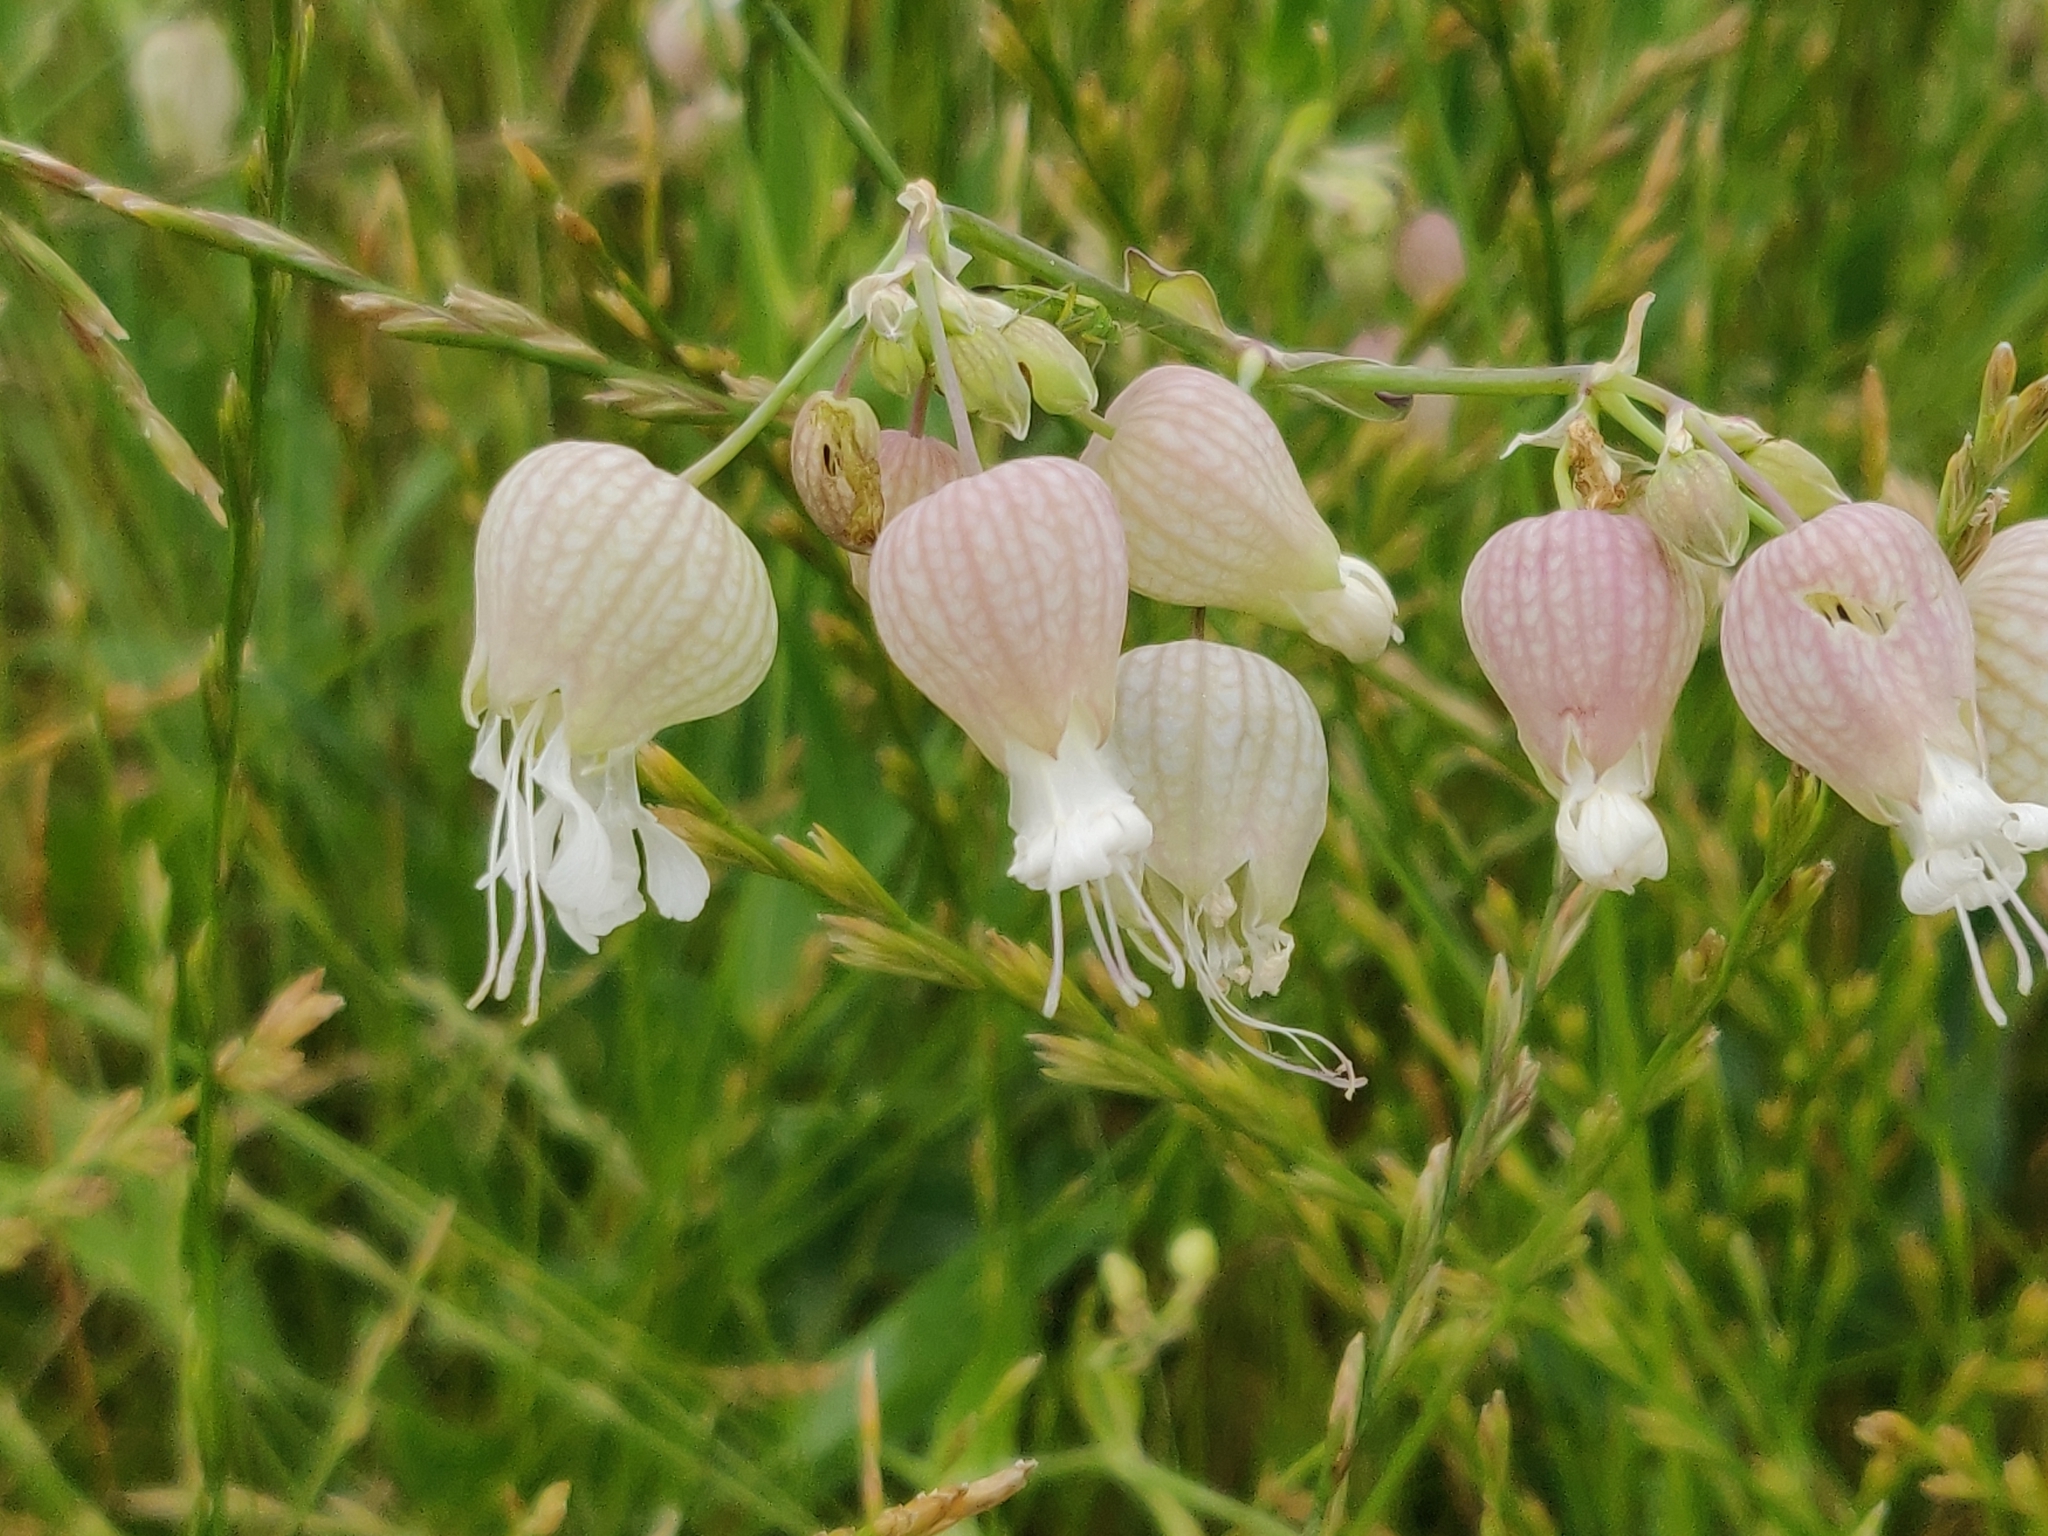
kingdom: Plantae
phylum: Tracheophyta
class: Magnoliopsida
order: Caryophyllales
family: Caryophyllaceae
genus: Silene
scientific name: Silene vulgaris
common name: Bladder campion
